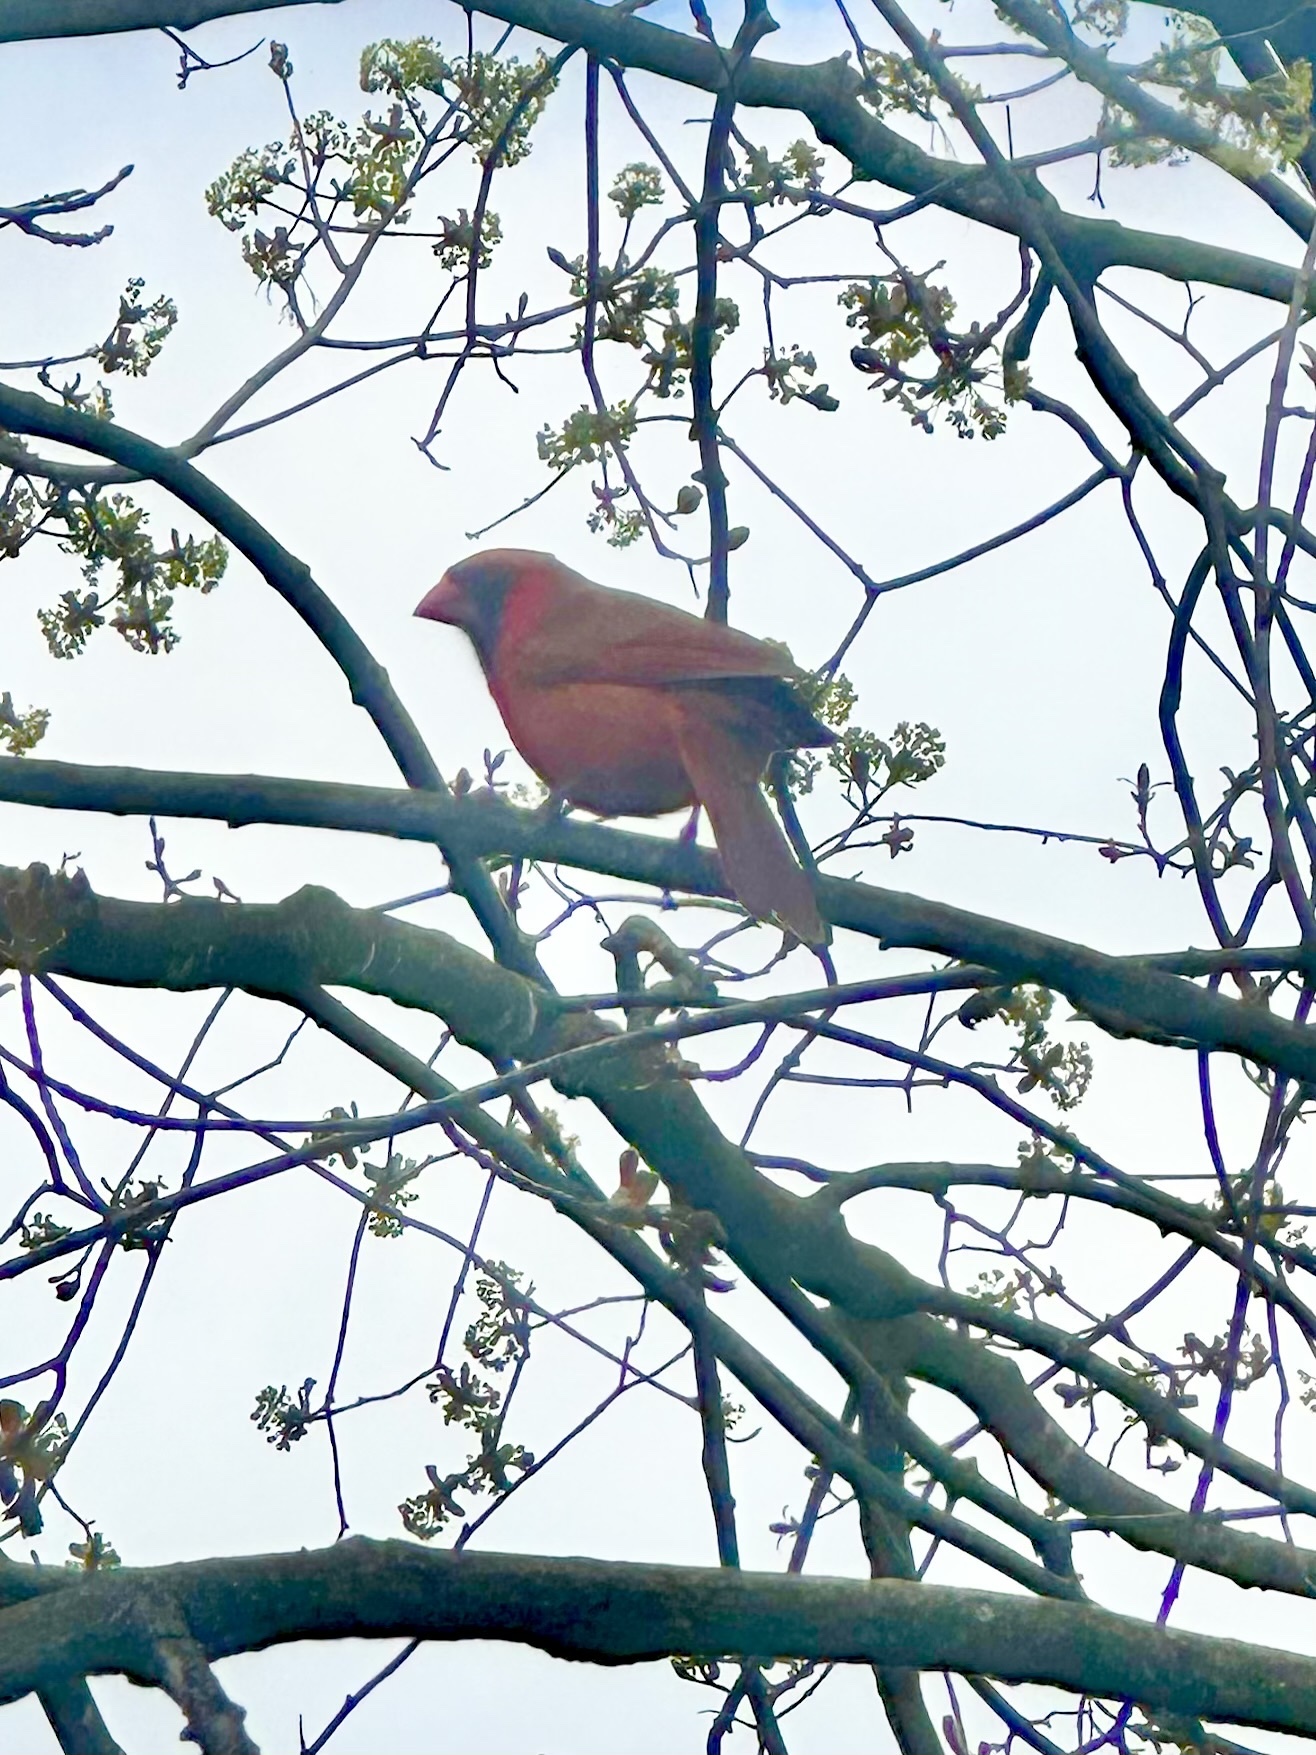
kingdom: Animalia
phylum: Chordata
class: Aves
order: Passeriformes
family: Cardinalidae
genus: Cardinalis
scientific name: Cardinalis cardinalis
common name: Northern cardinal
